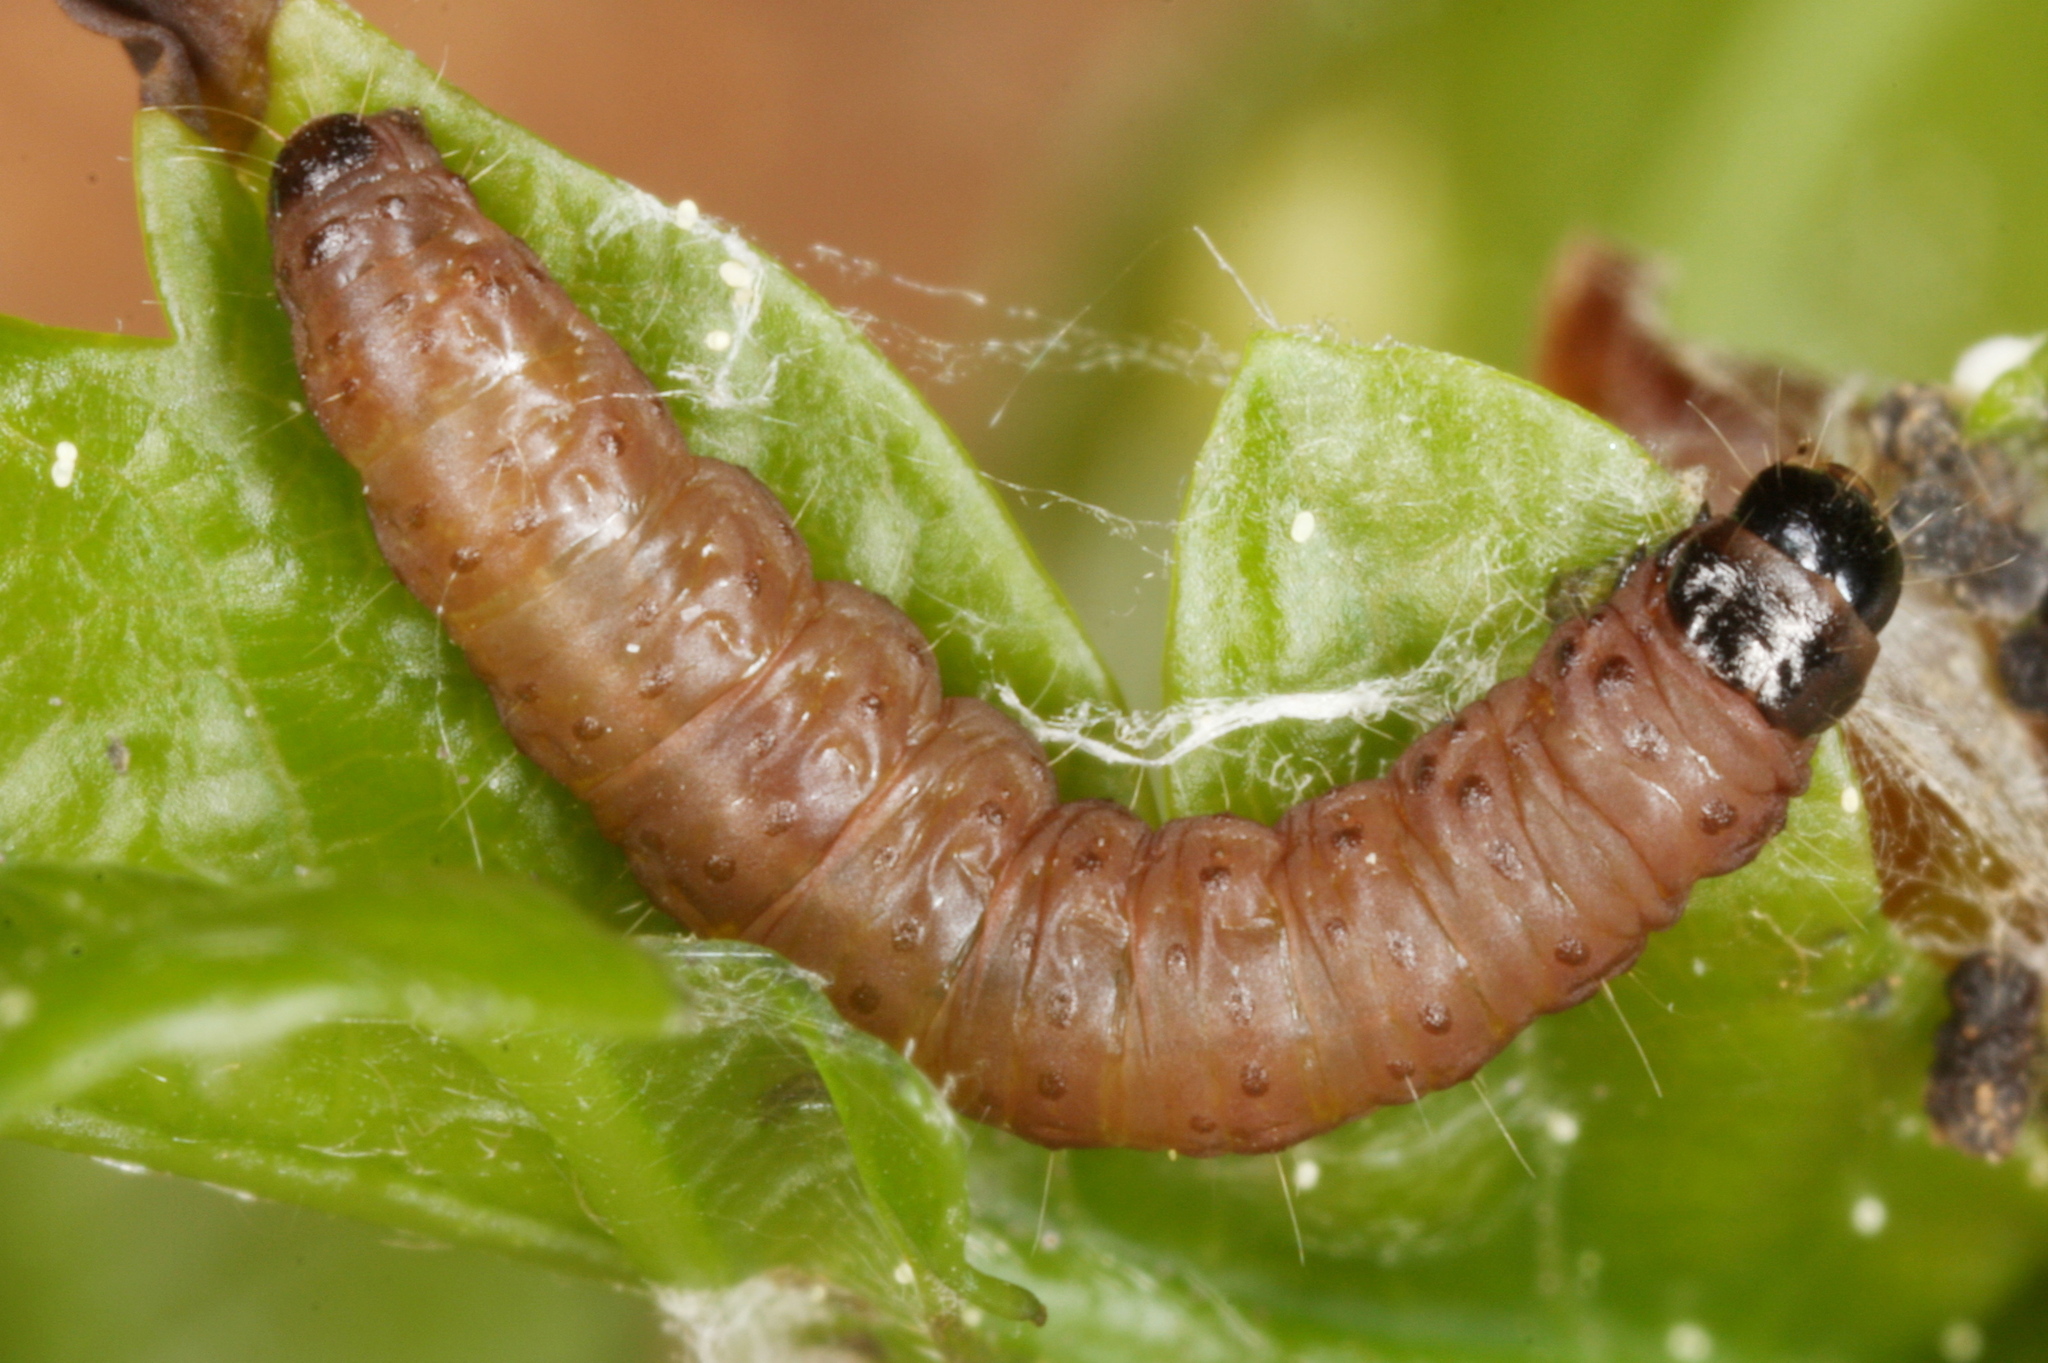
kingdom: Animalia
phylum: Arthropoda
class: Insecta
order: Lepidoptera
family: Tortricidae
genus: Spilonota
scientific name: Spilonota ocellana
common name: Bud moth
